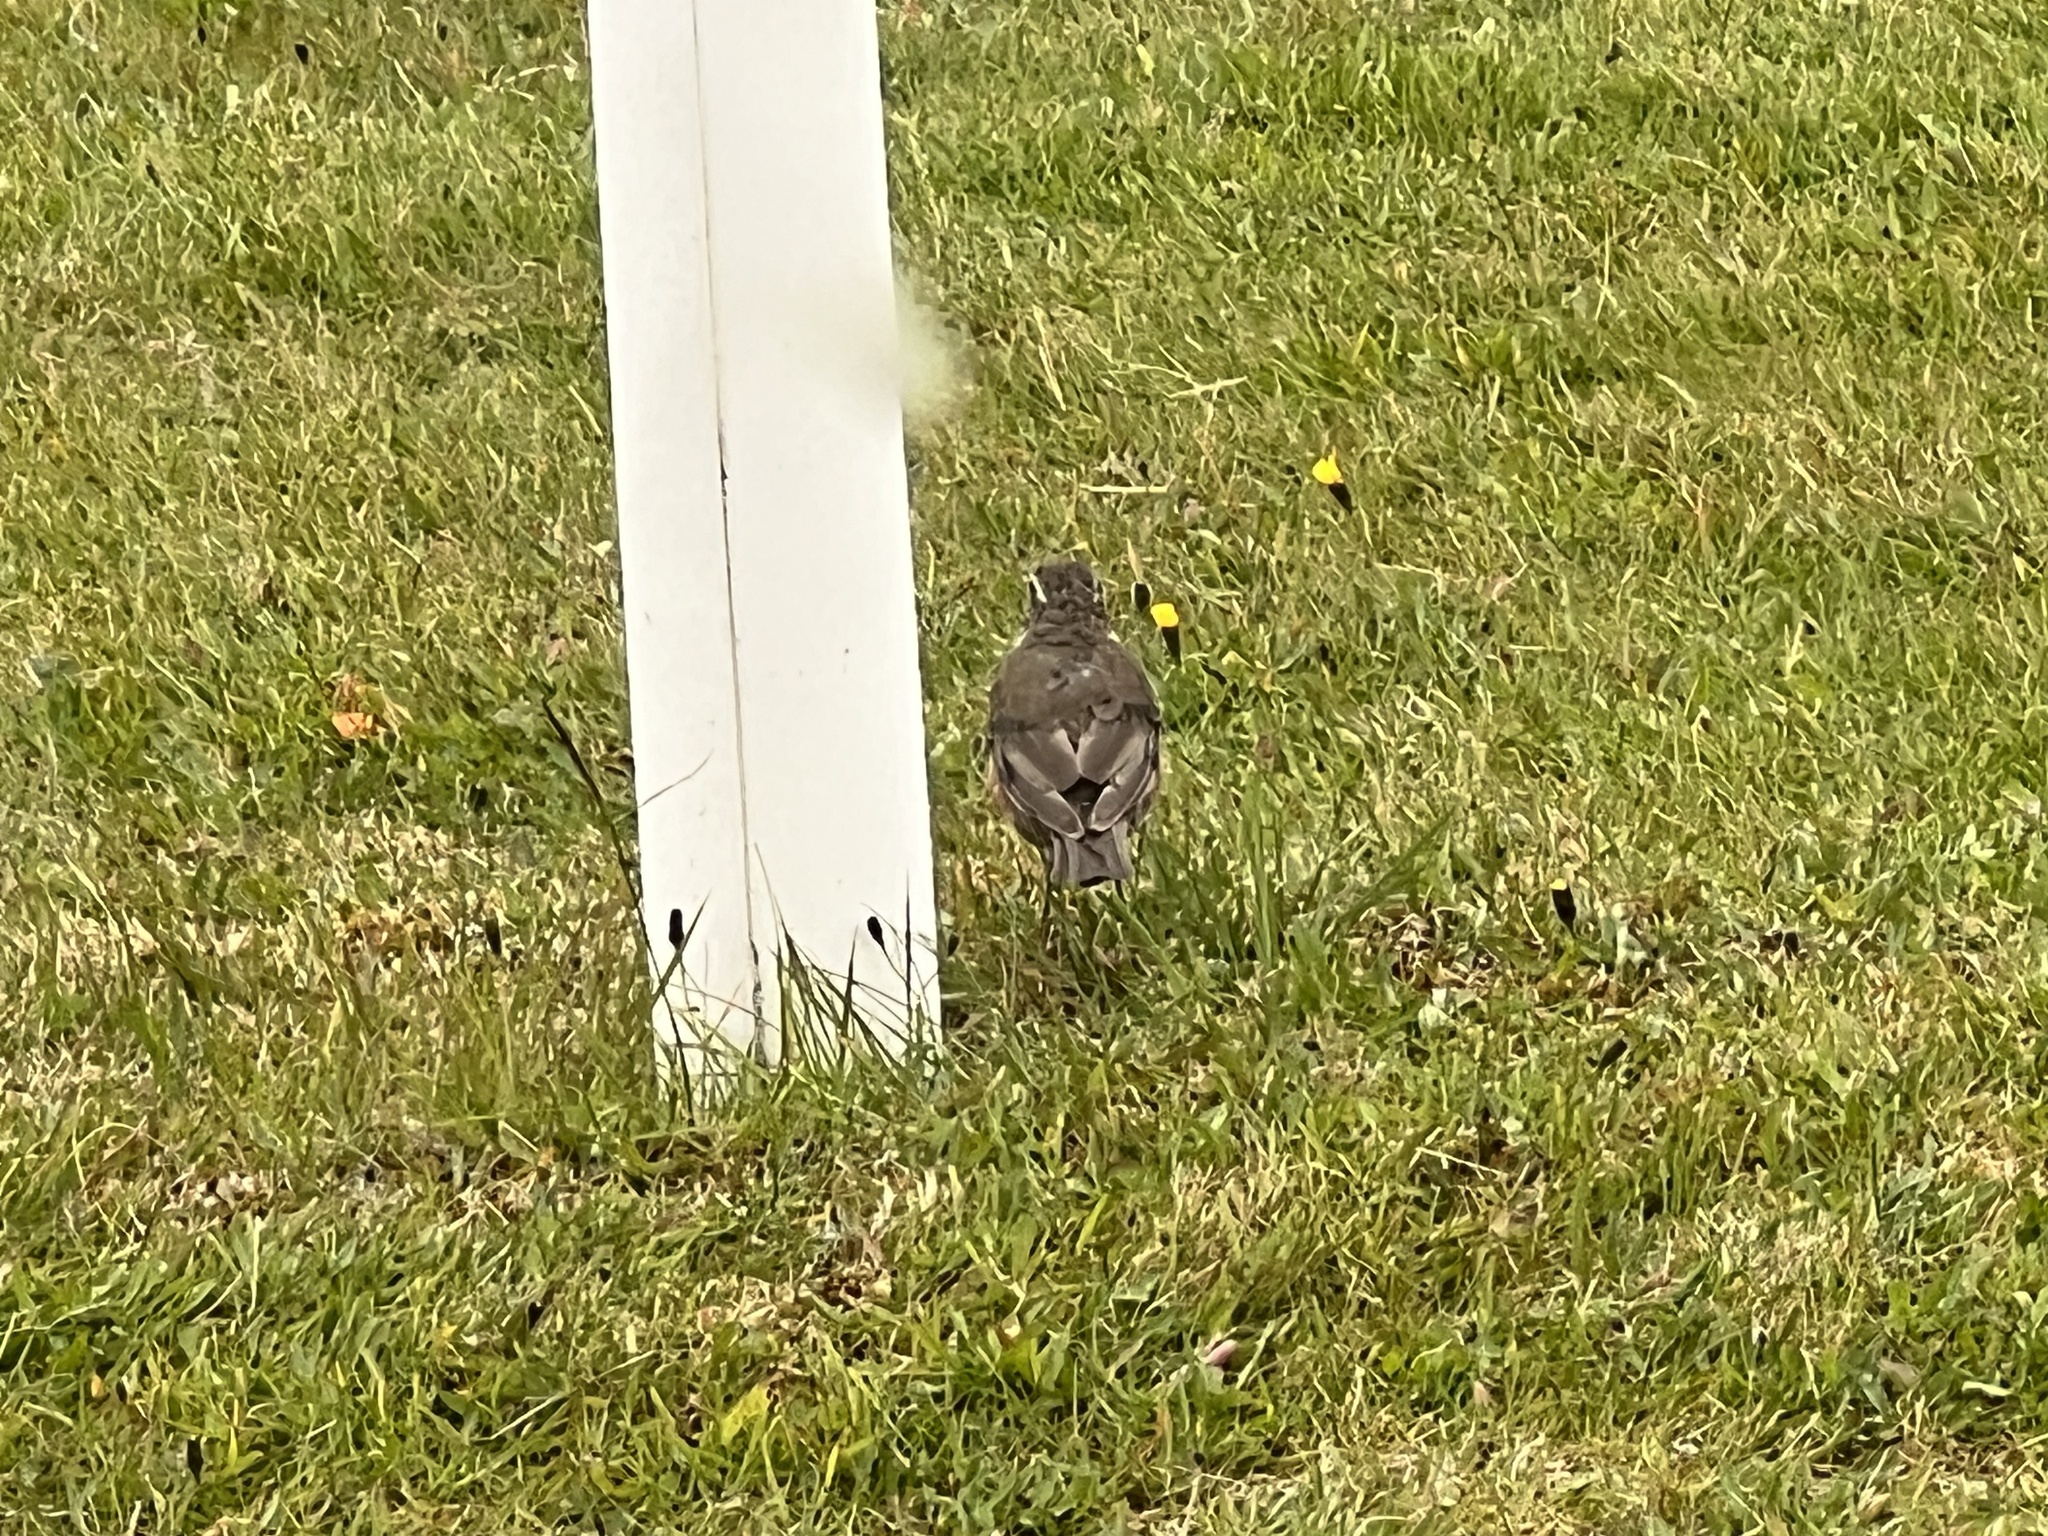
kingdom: Animalia
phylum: Chordata
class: Aves
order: Passeriformes
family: Turdidae
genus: Turdus
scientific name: Turdus iliacus
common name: Redwing
